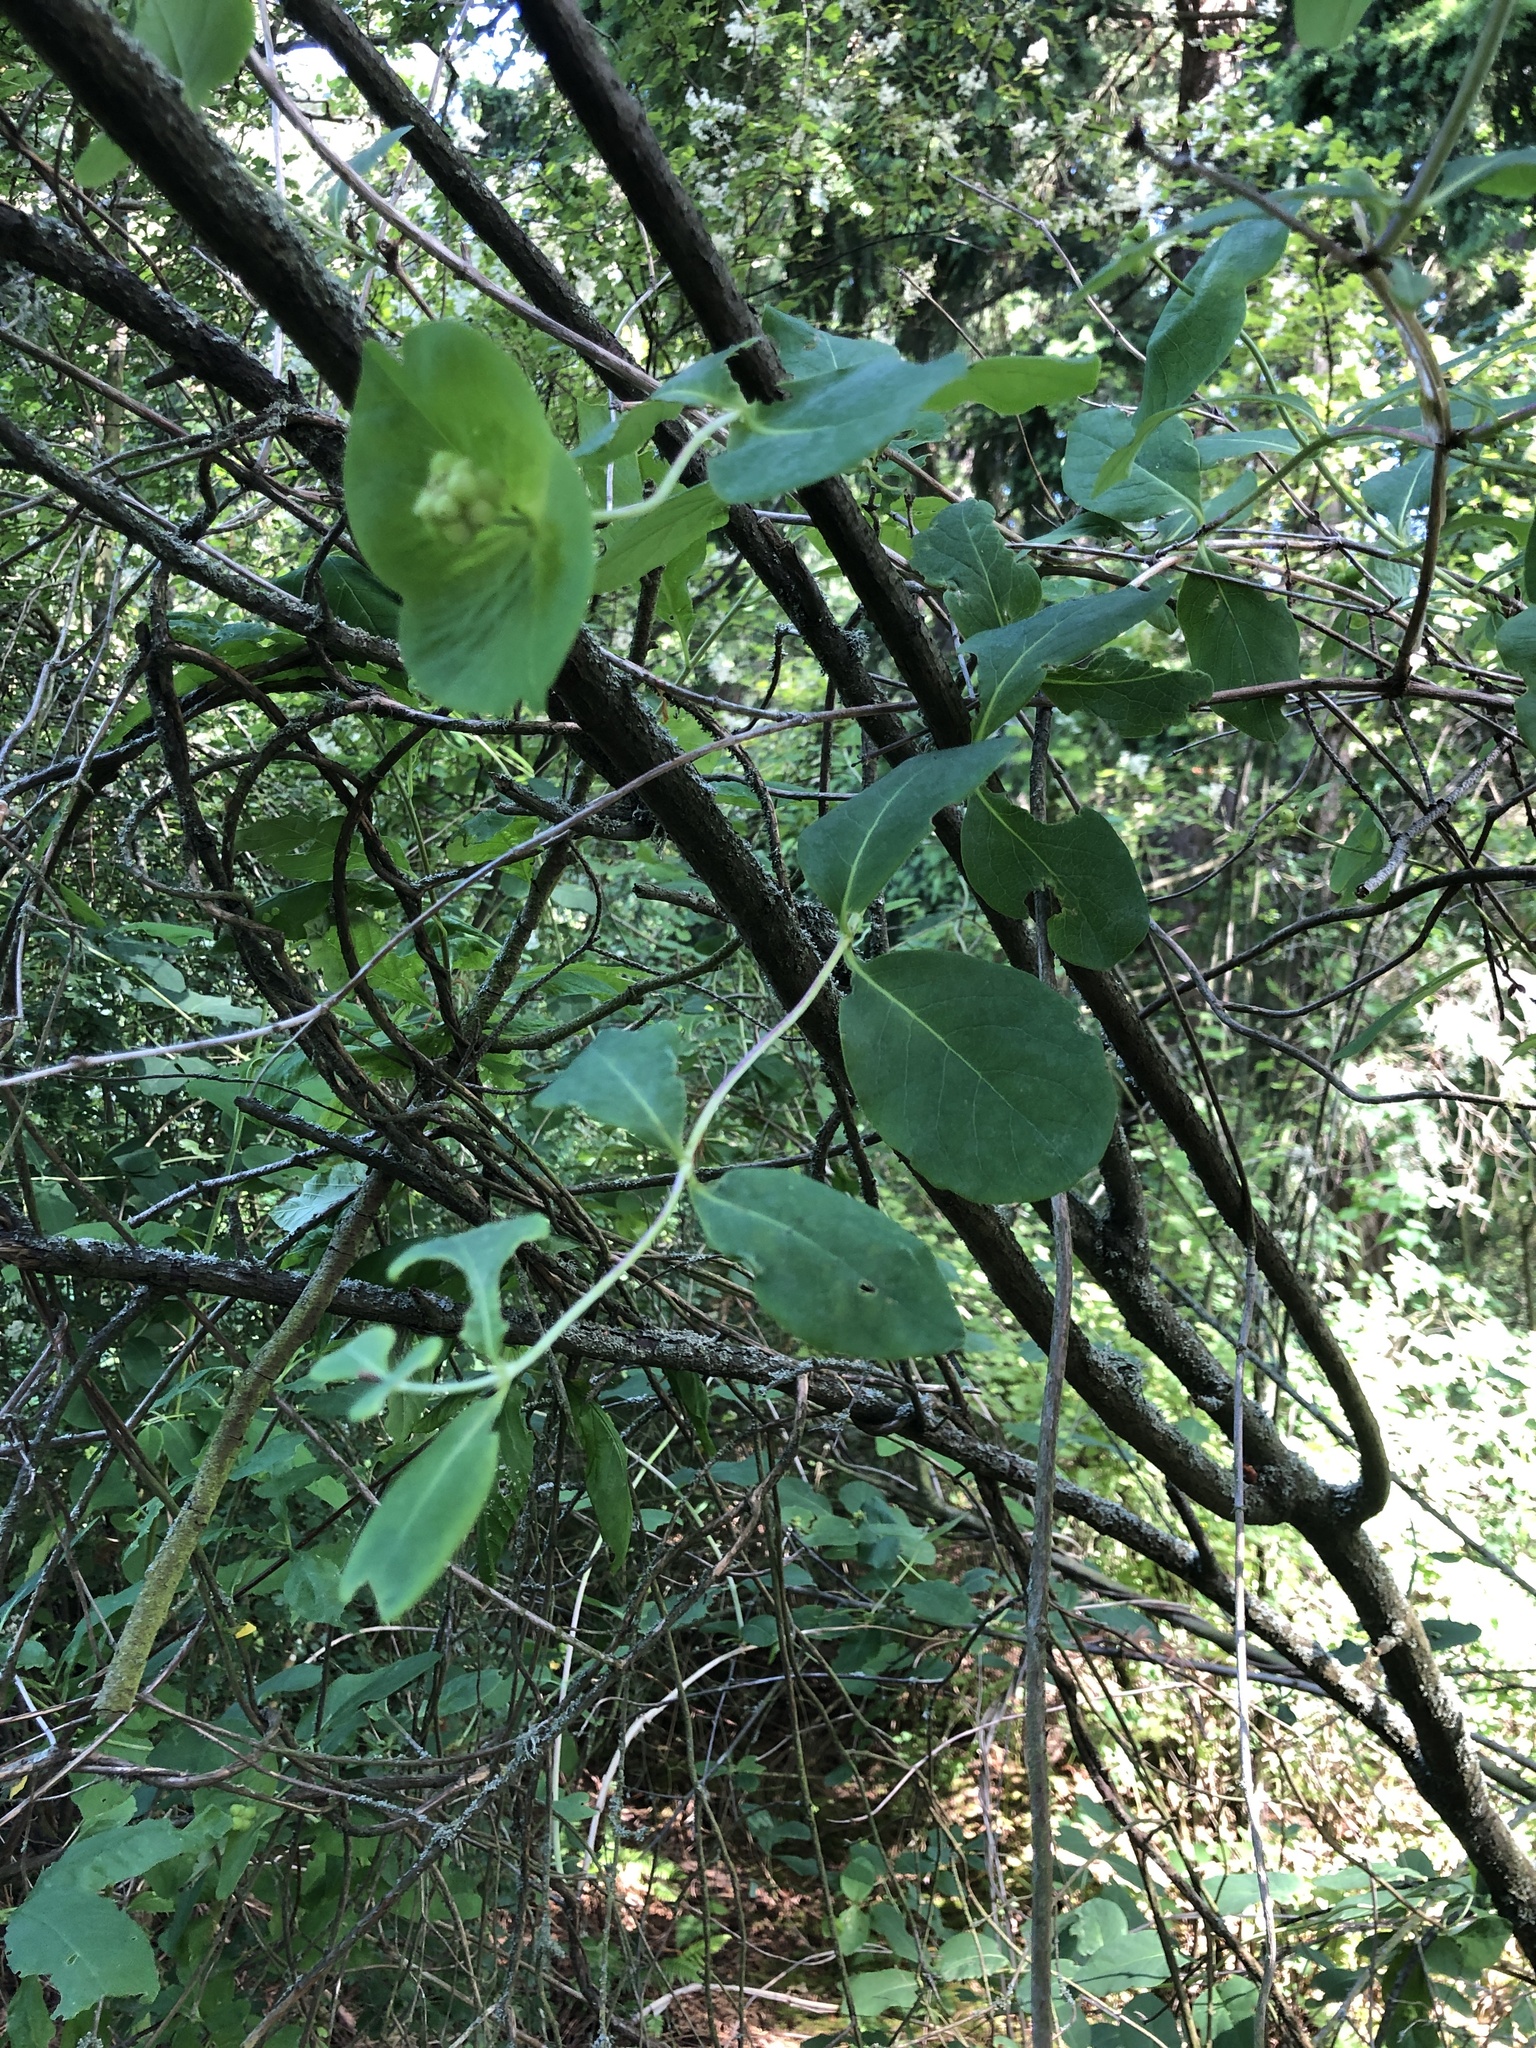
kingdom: Plantae
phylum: Tracheophyta
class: Magnoliopsida
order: Dipsacales
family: Caprifoliaceae
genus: Lonicera
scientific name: Lonicera ciliosa
